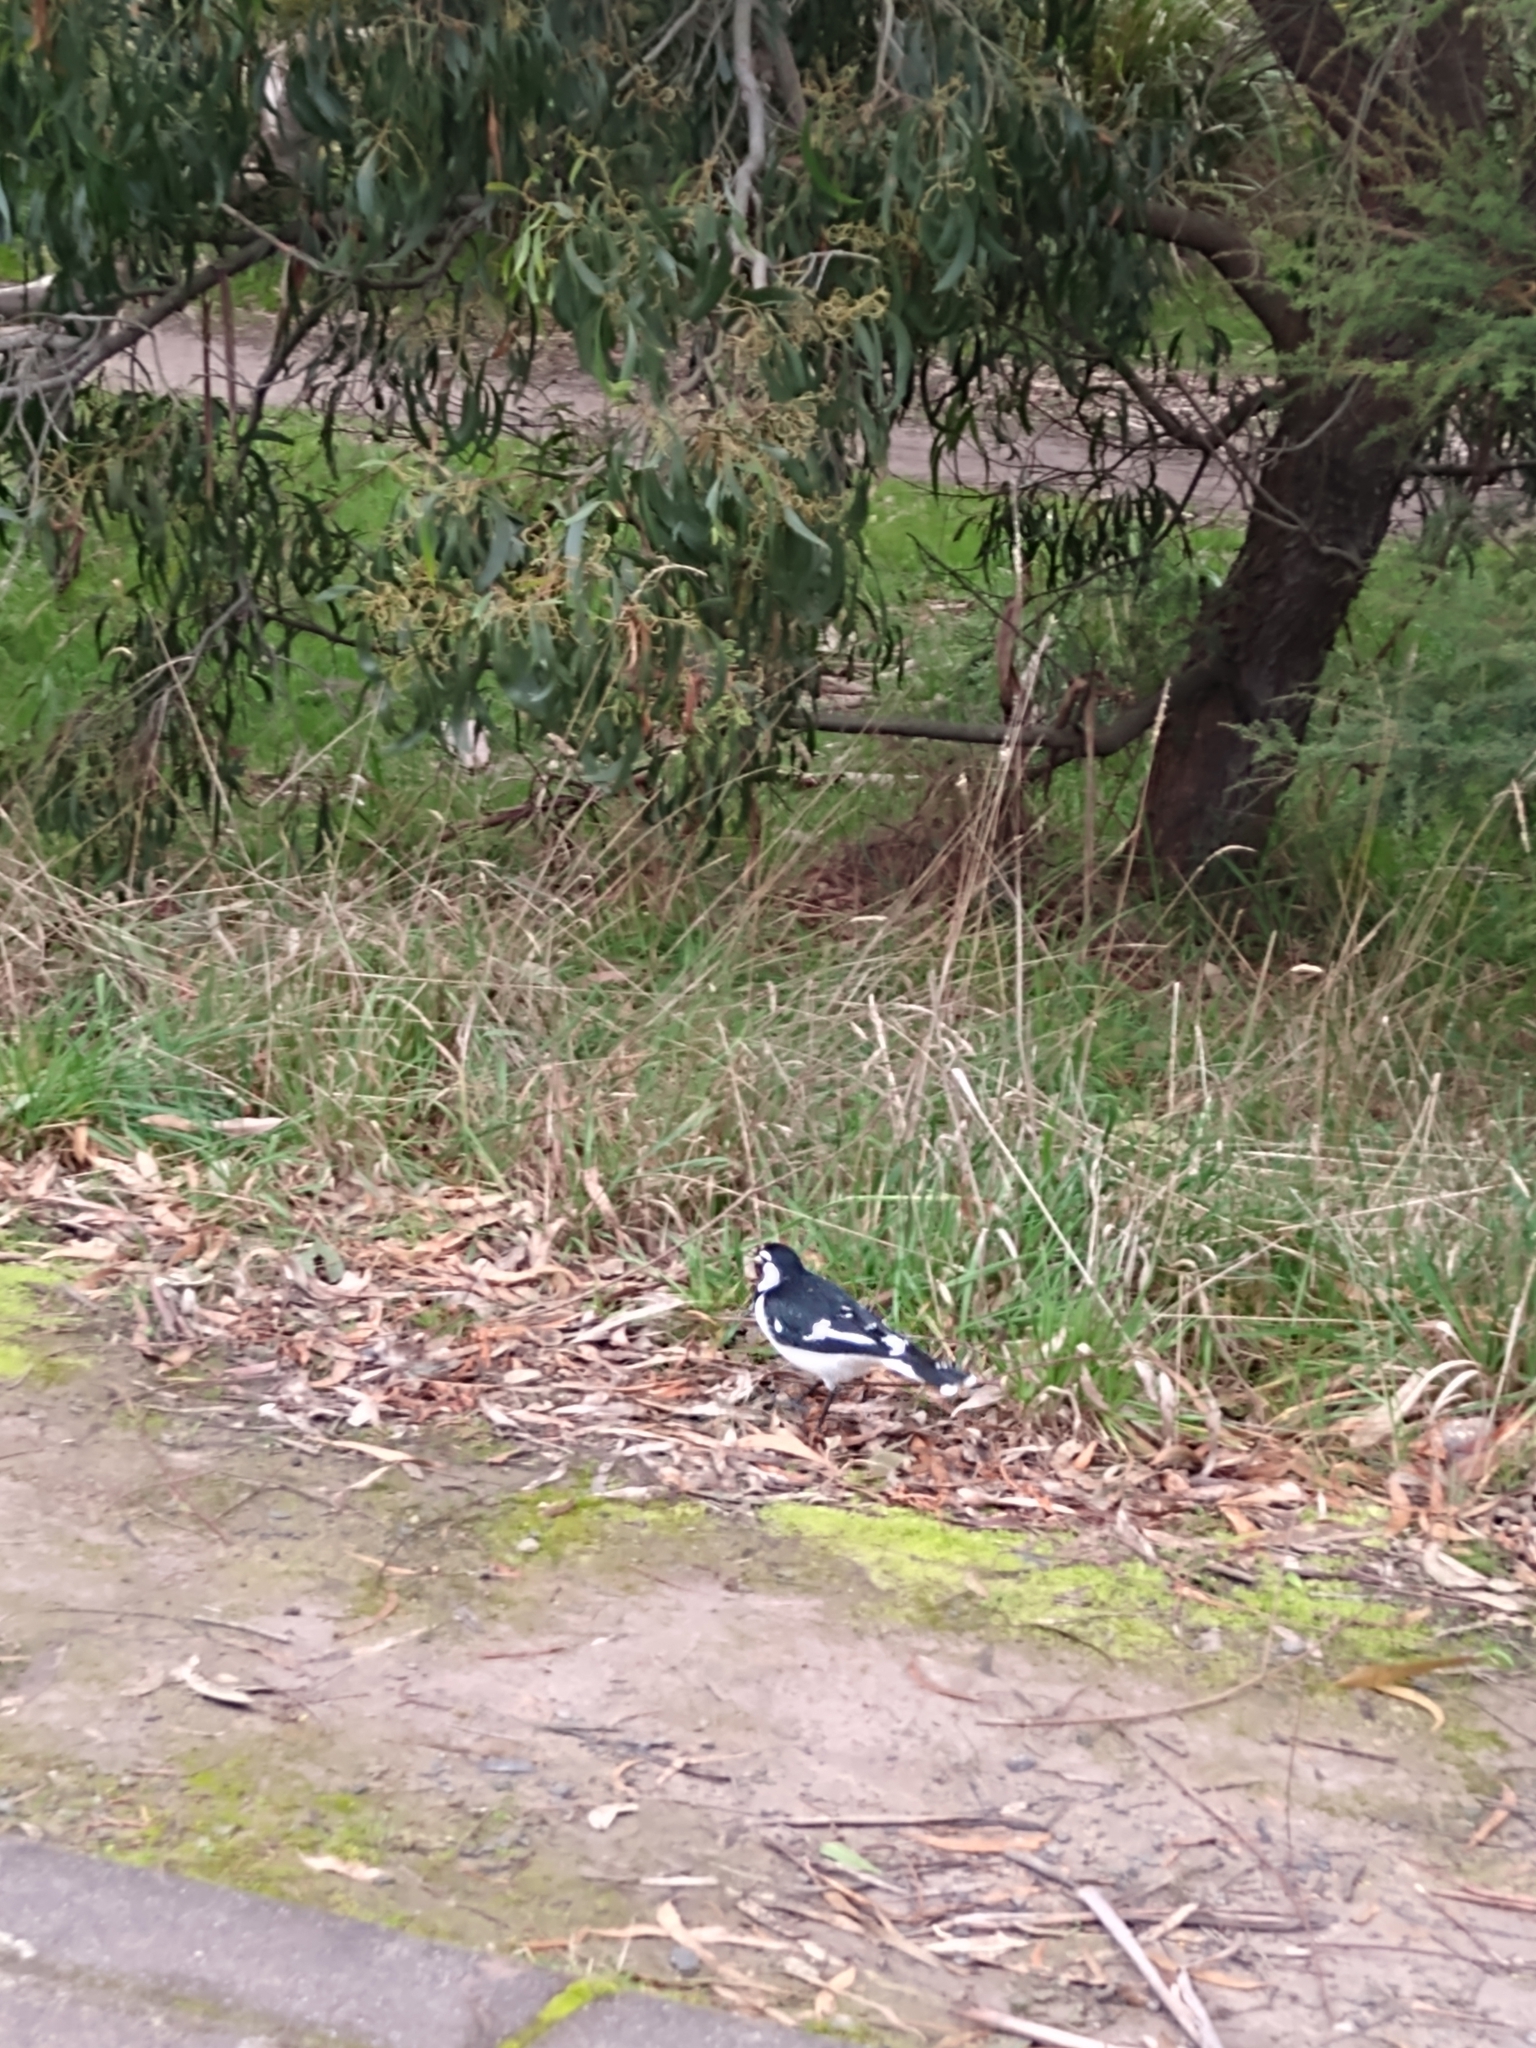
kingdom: Animalia
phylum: Chordata
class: Aves
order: Passeriformes
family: Monarchidae
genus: Grallina
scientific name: Grallina cyanoleuca
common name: Magpie-lark
